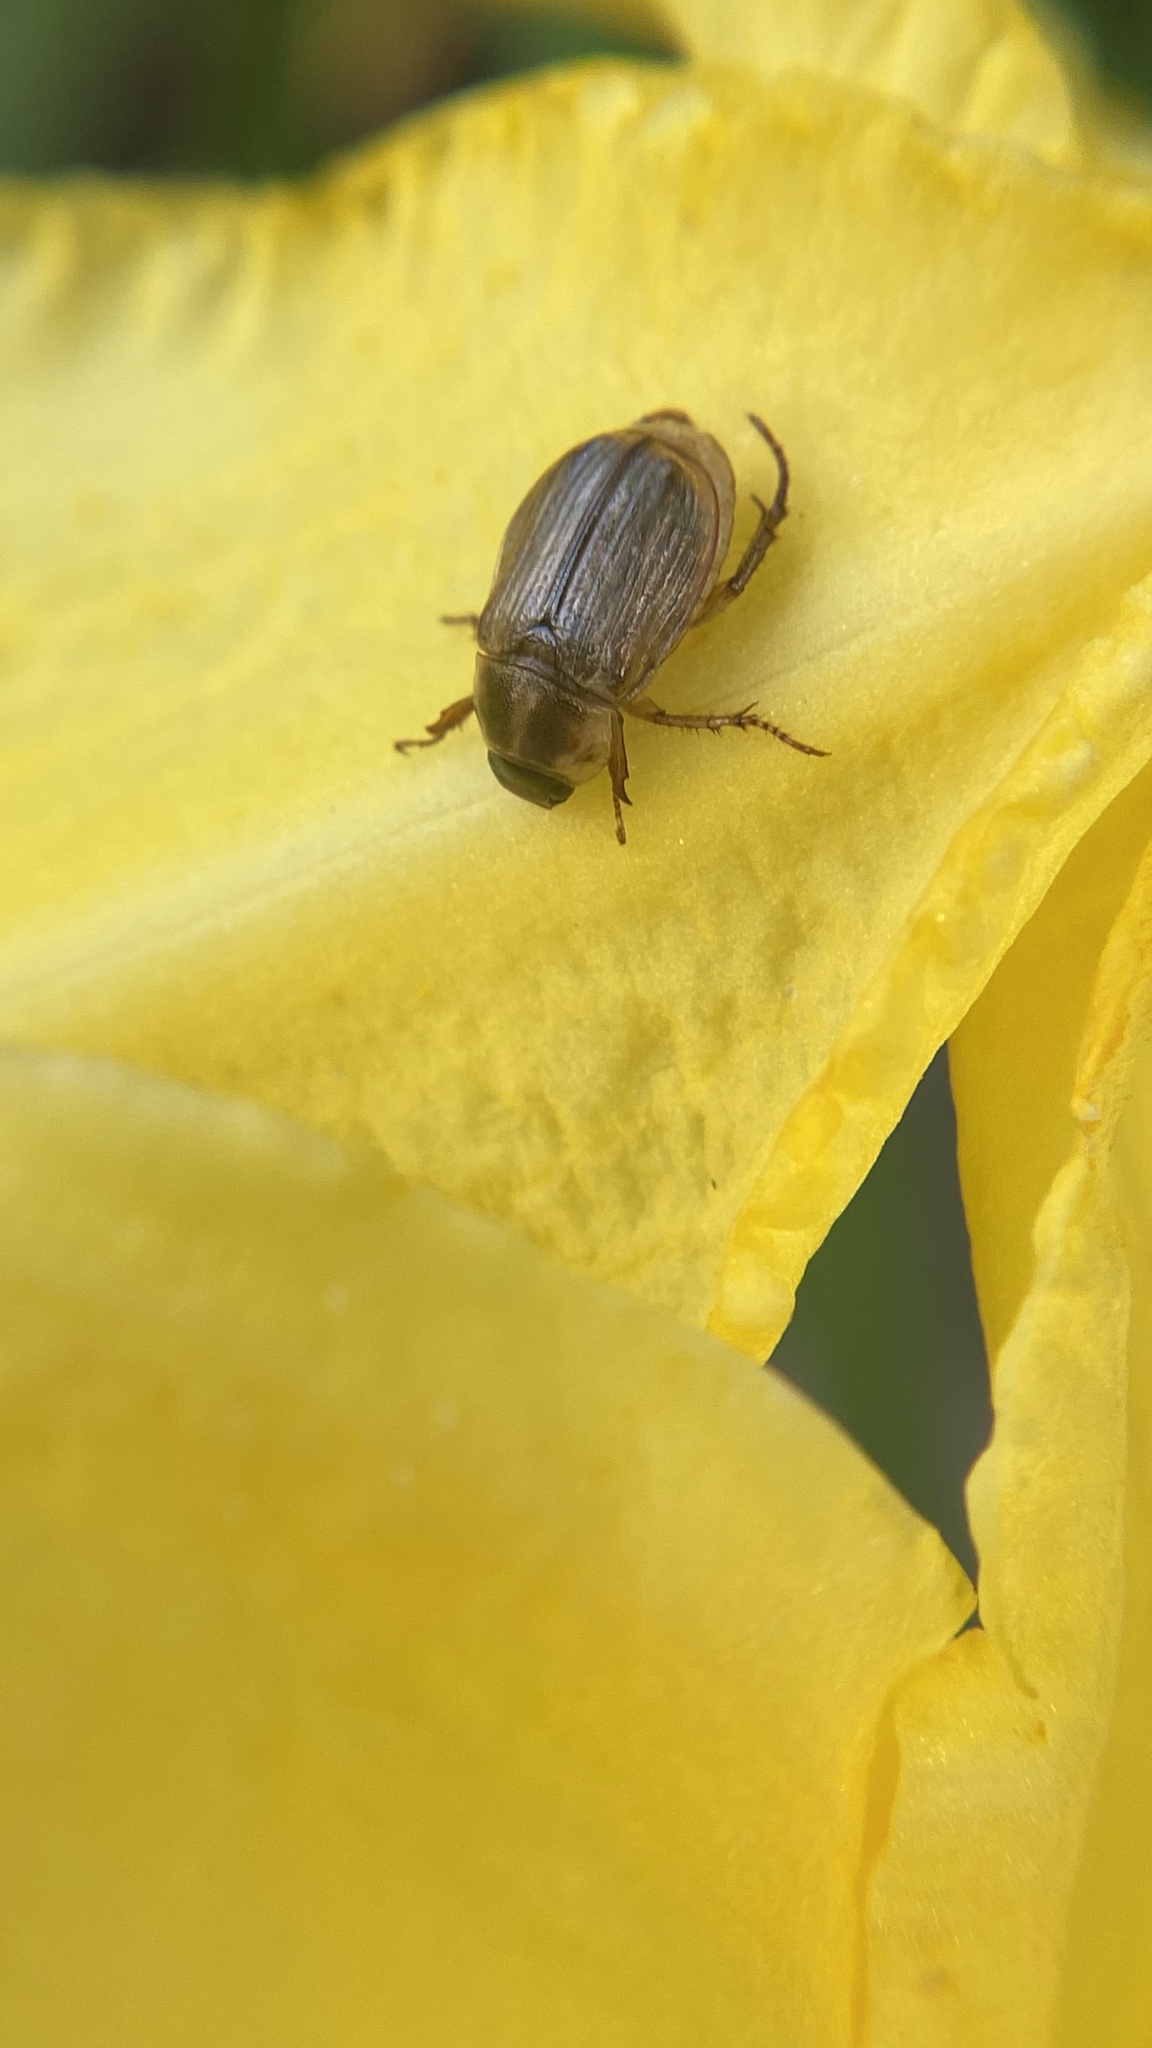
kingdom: Animalia
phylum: Arthropoda
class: Insecta
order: Coleoptera
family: Scarabaeidae
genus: Exomala
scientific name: Exomala orientalis
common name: Oriental beetle
